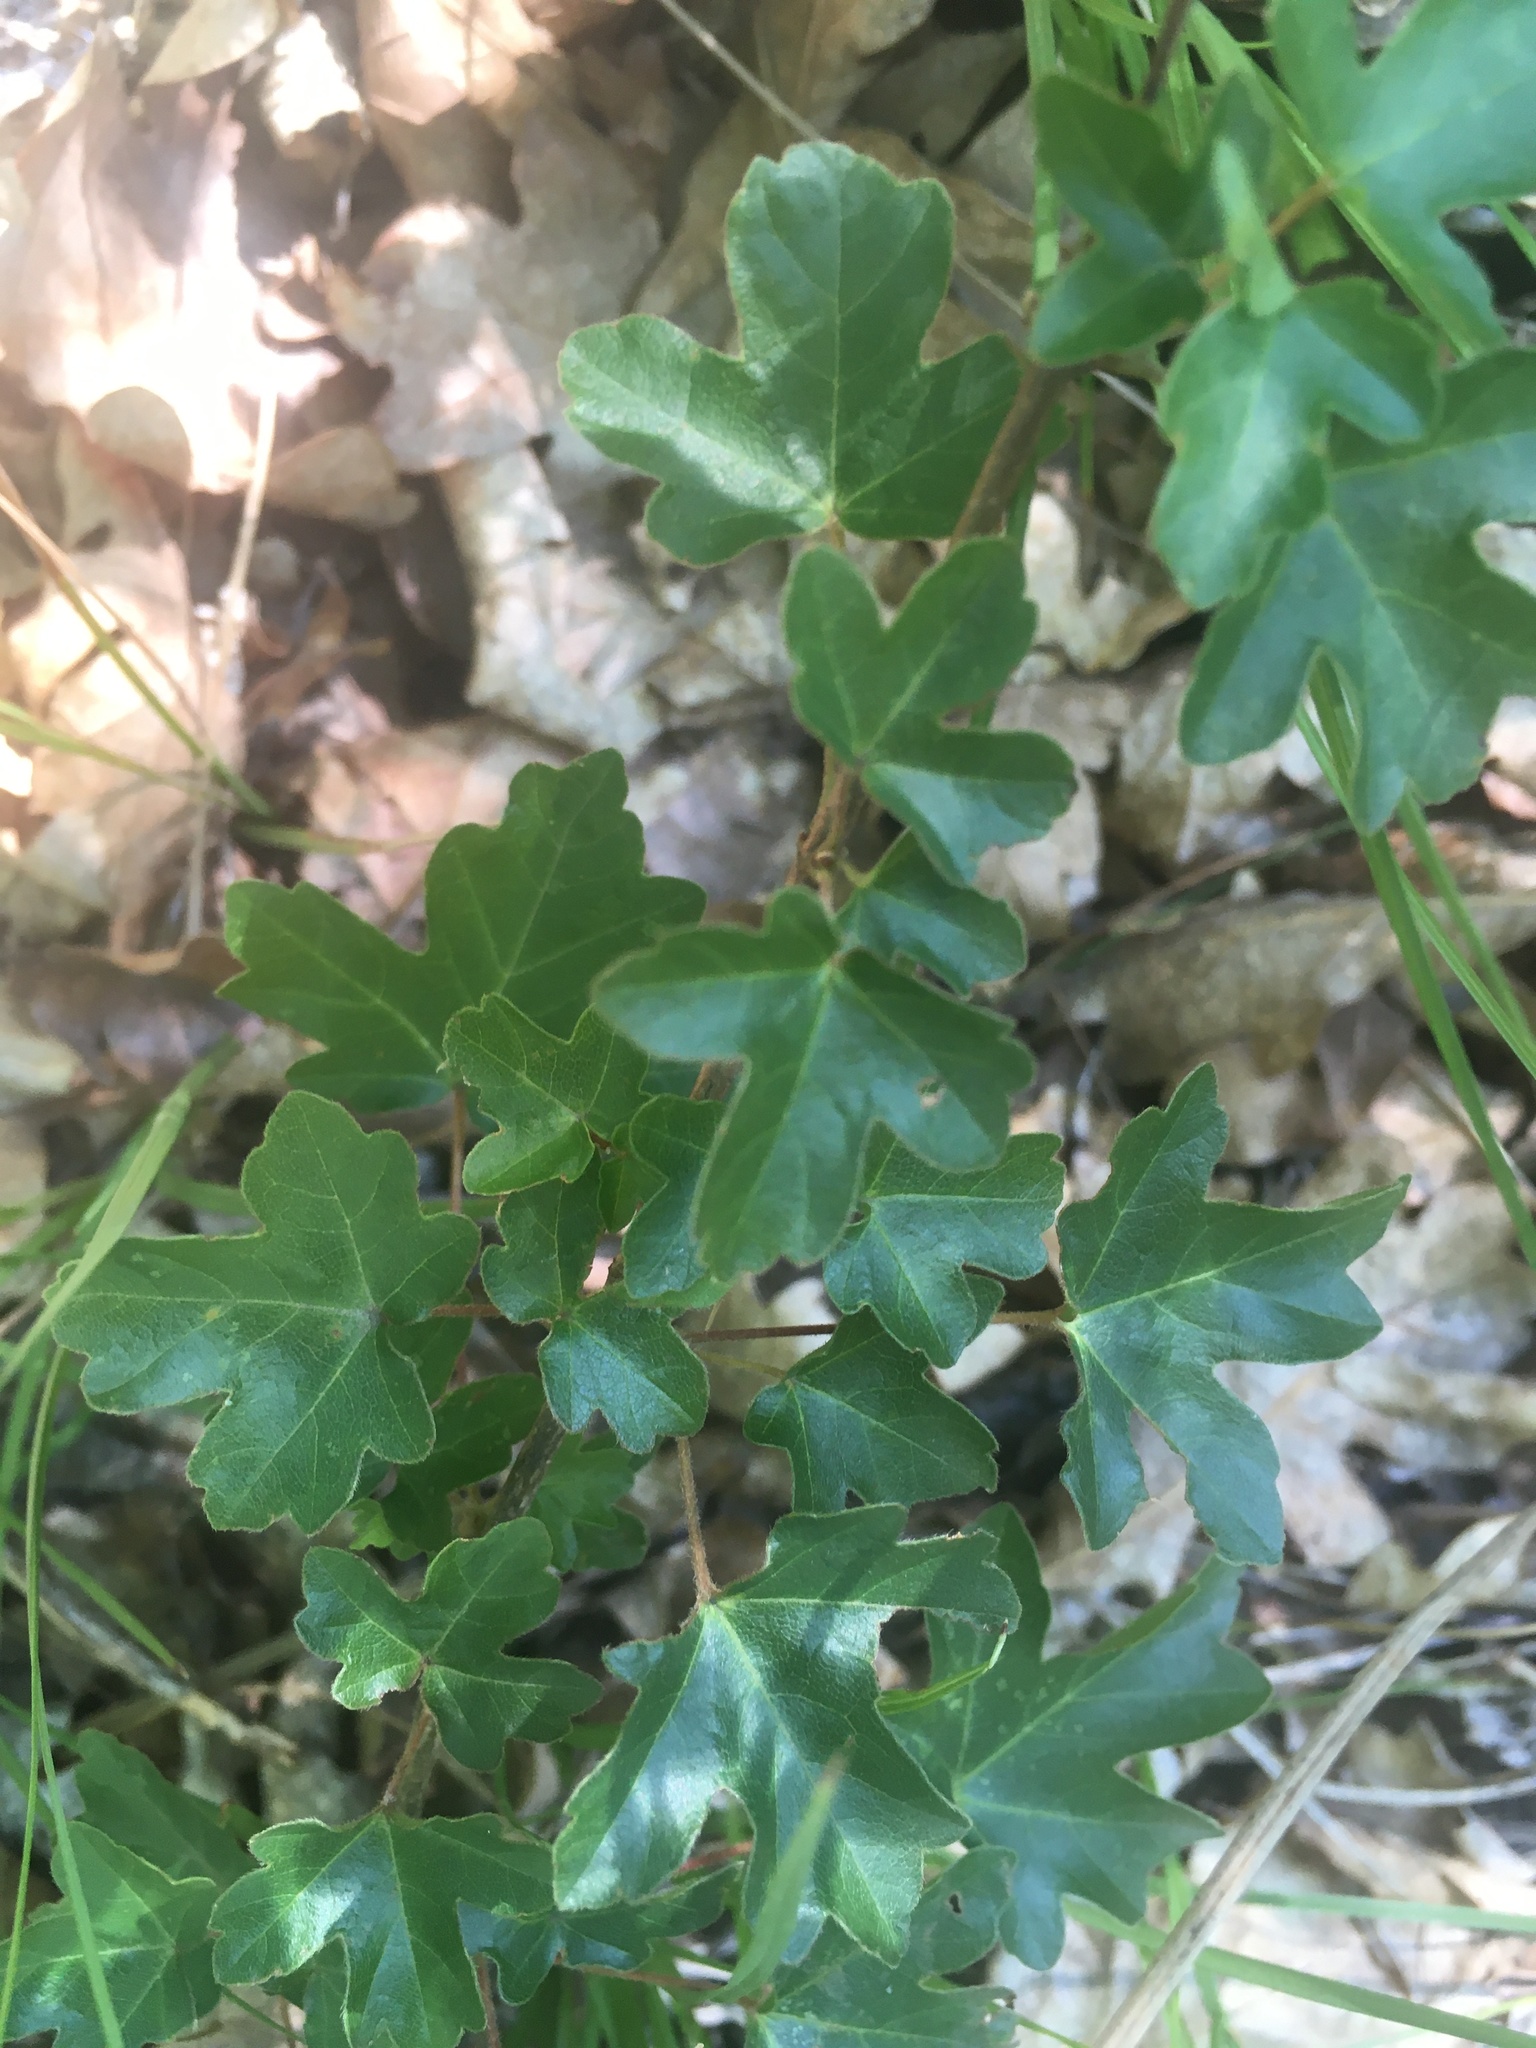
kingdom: Plantae
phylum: Tracheophyta
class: Magnoliopsida
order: Sapindales
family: Sapindaceae
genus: Acer
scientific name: Acer campestre
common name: Field maple
